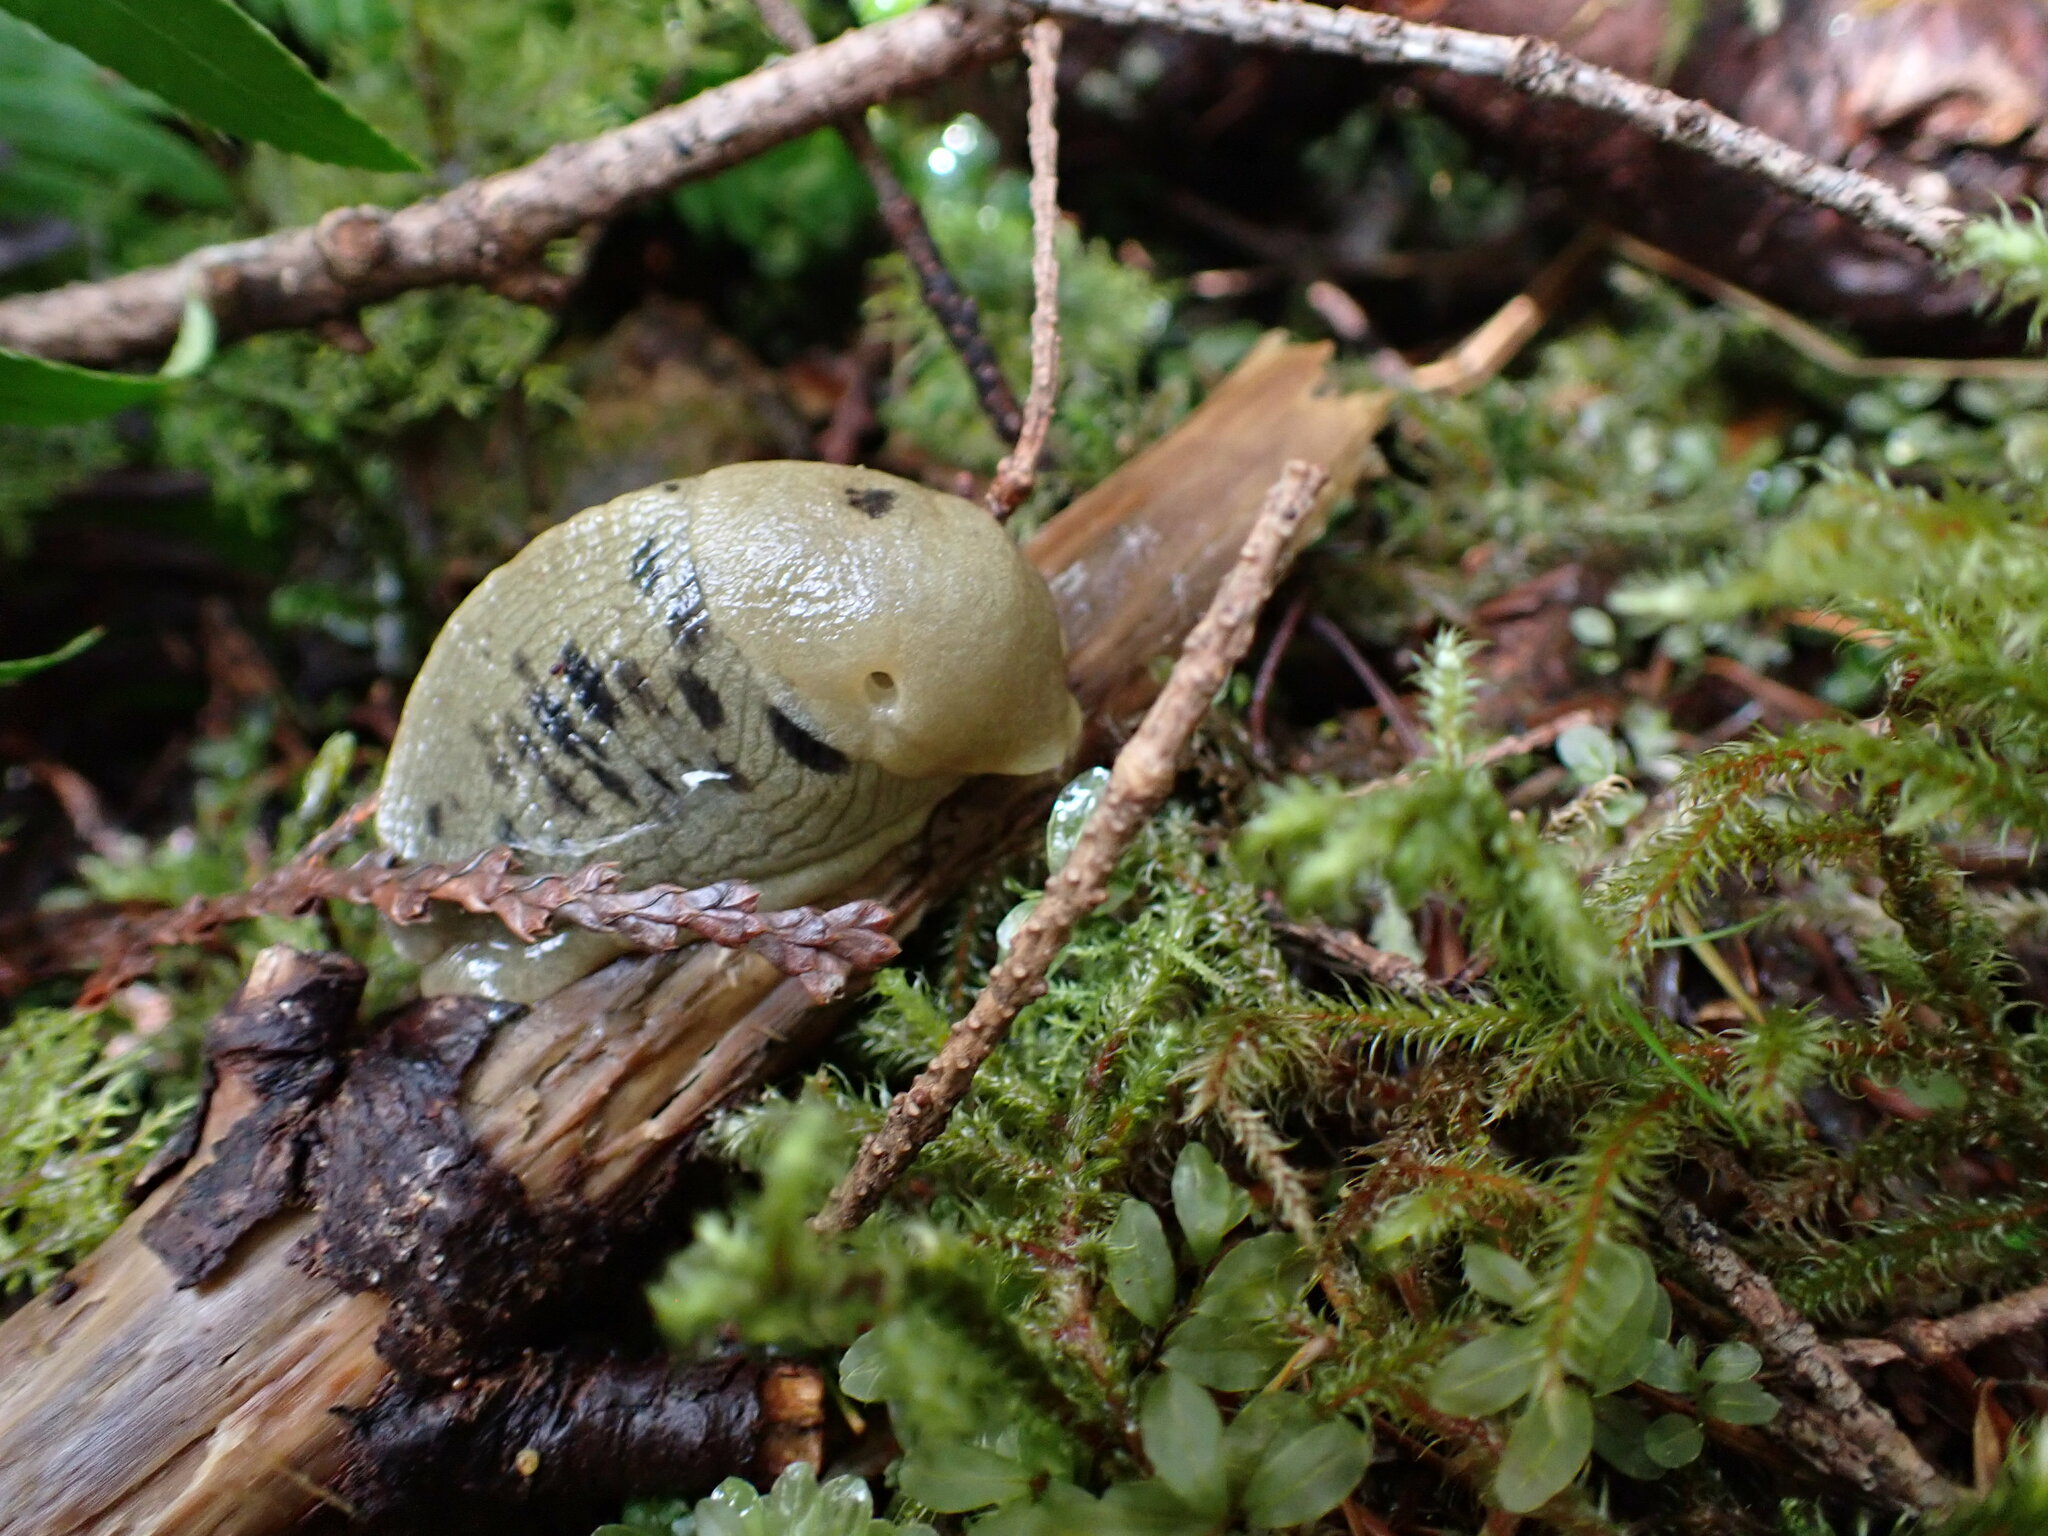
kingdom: Animalia
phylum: Mollusca
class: Gastropoda
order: Stylommatophora
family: Ariolimacidae
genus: Ariolimax
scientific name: Ariolimax columbianus
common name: Pacific banana slug
